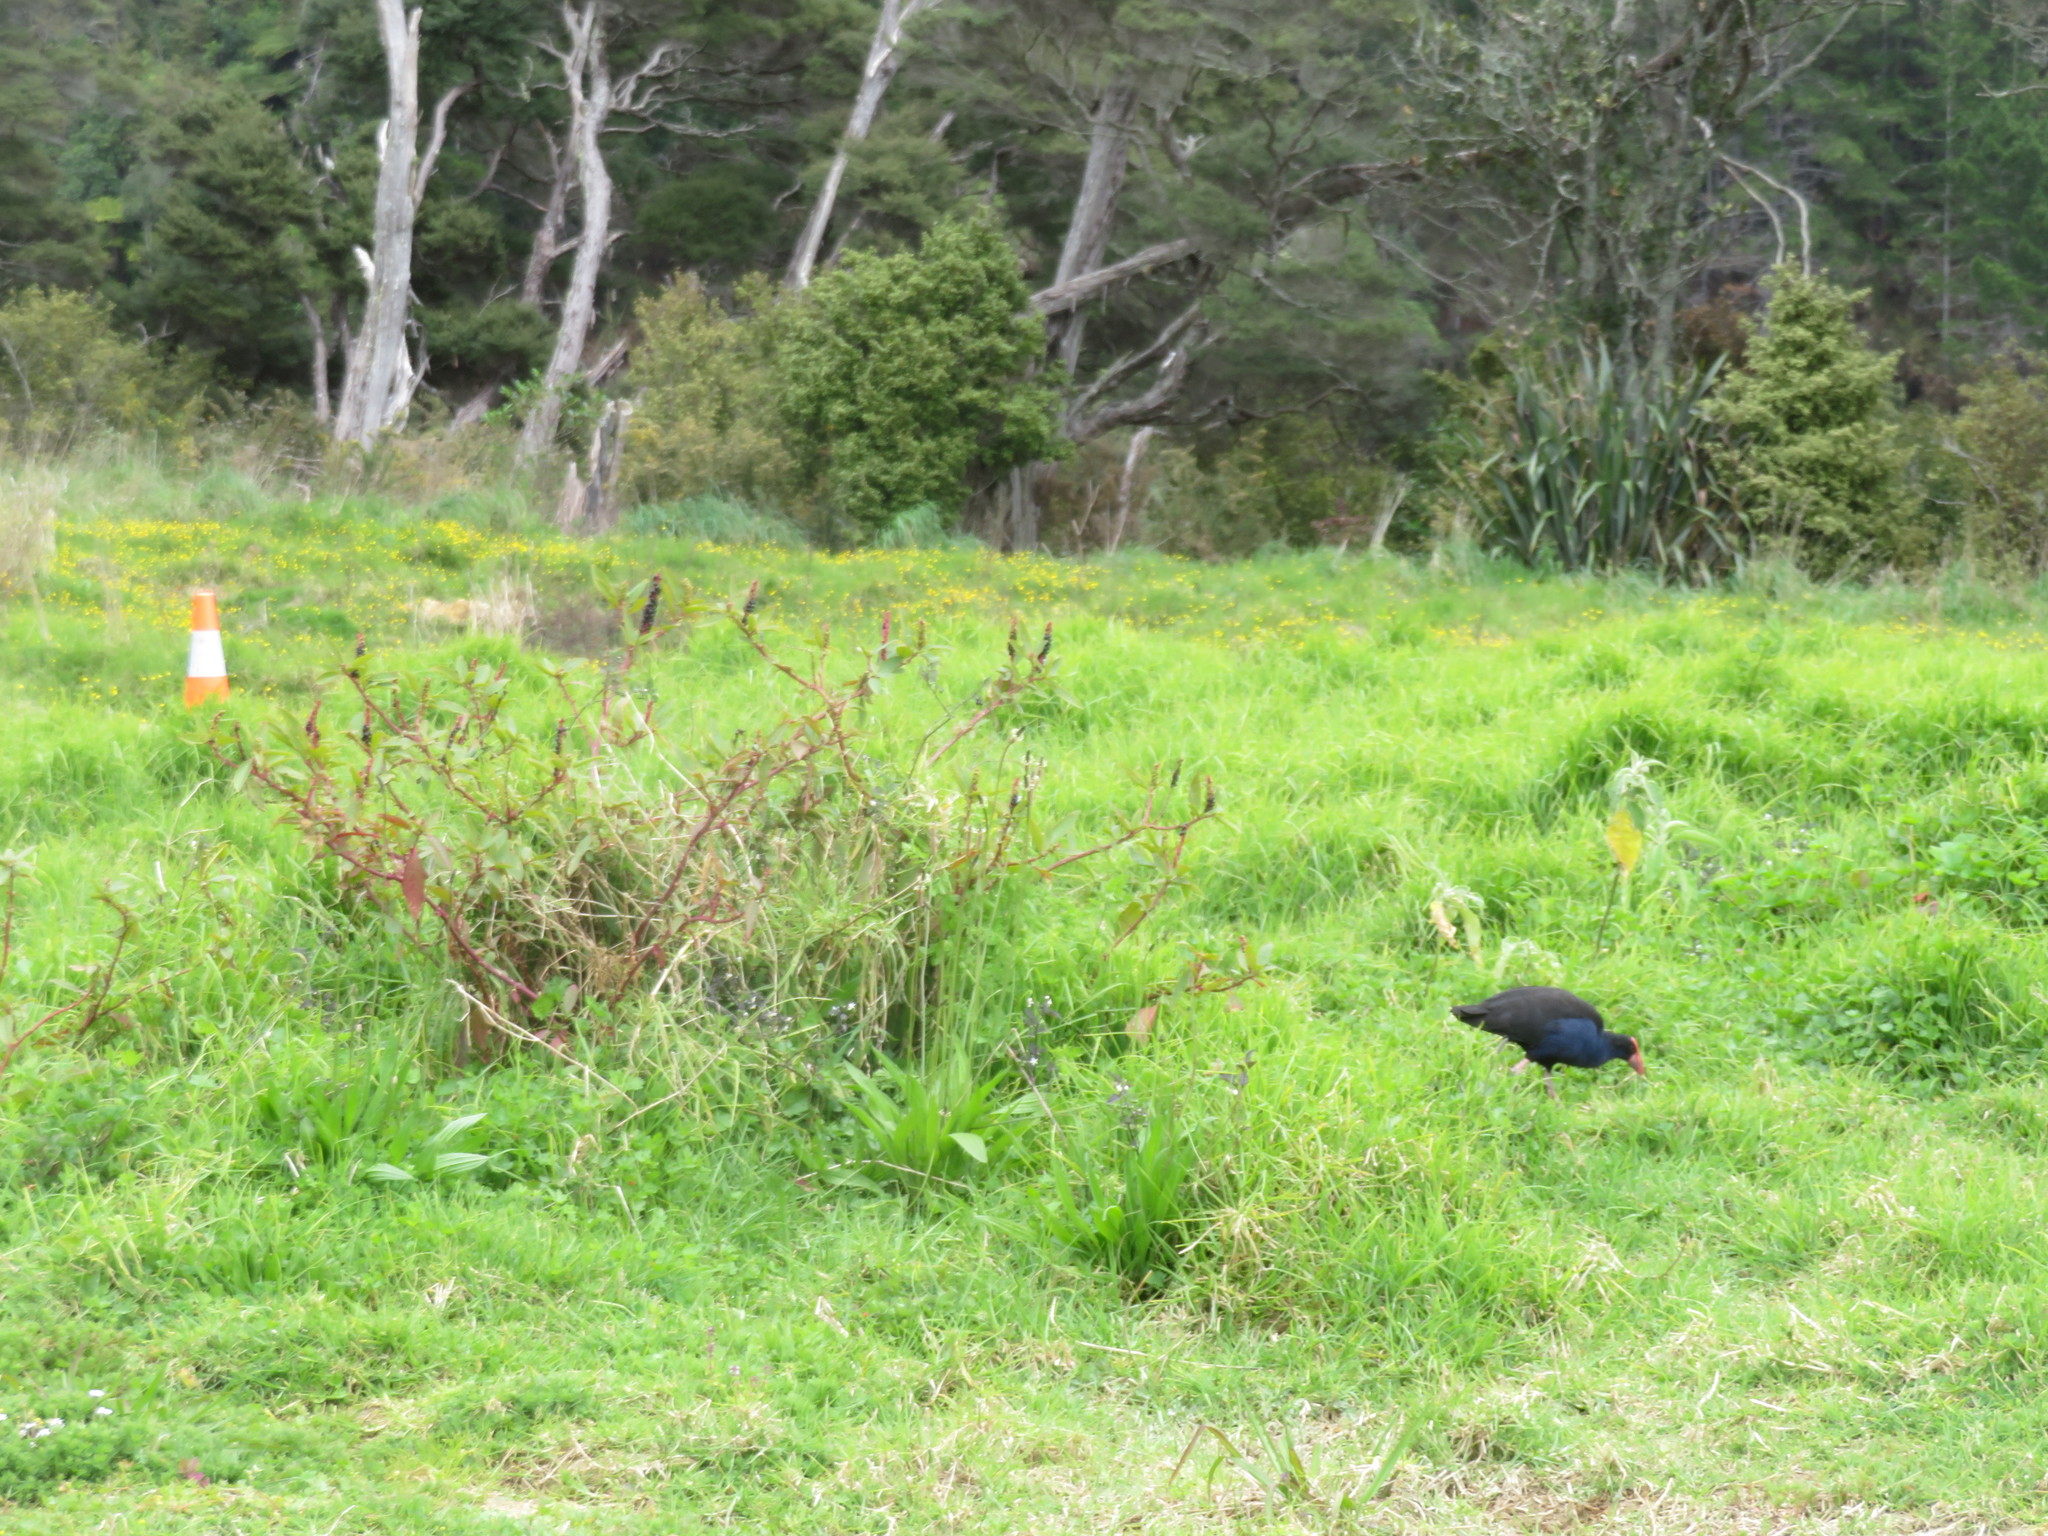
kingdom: Animalia
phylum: Chordata
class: Aves
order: Gruiformes
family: Rallidae
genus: Porphyrio
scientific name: Porphyrio melanotus
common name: Australasian swamphen
